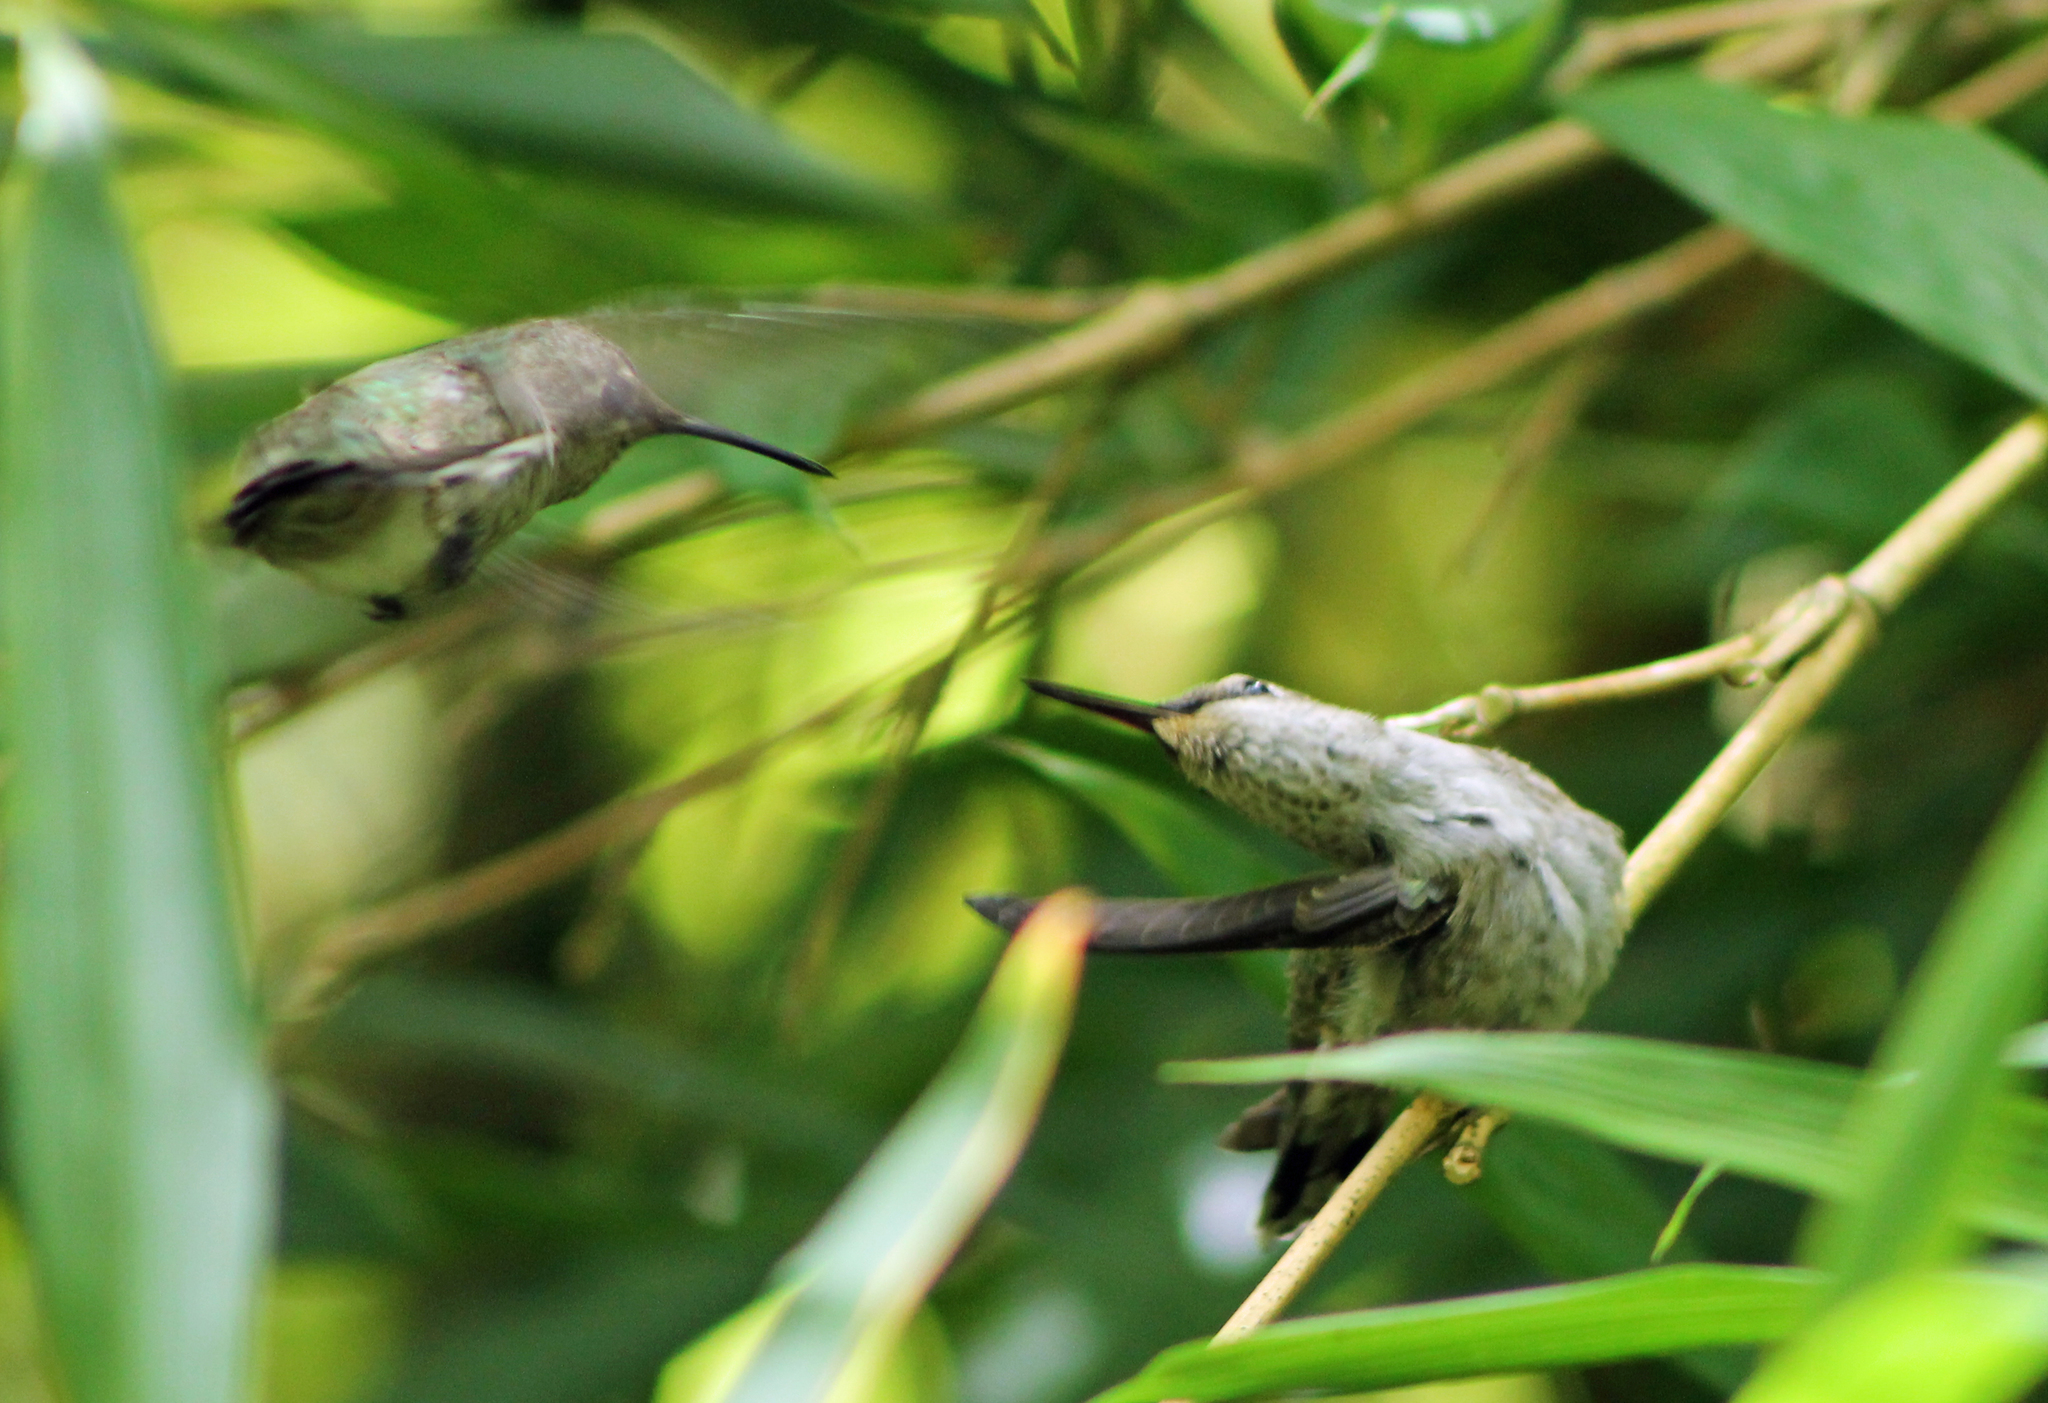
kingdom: Animalia
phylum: Chordata
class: Aves
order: Apodiformes
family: Trochilidae
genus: Calypte
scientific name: Calypte anna
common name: Anna's hummingbird
